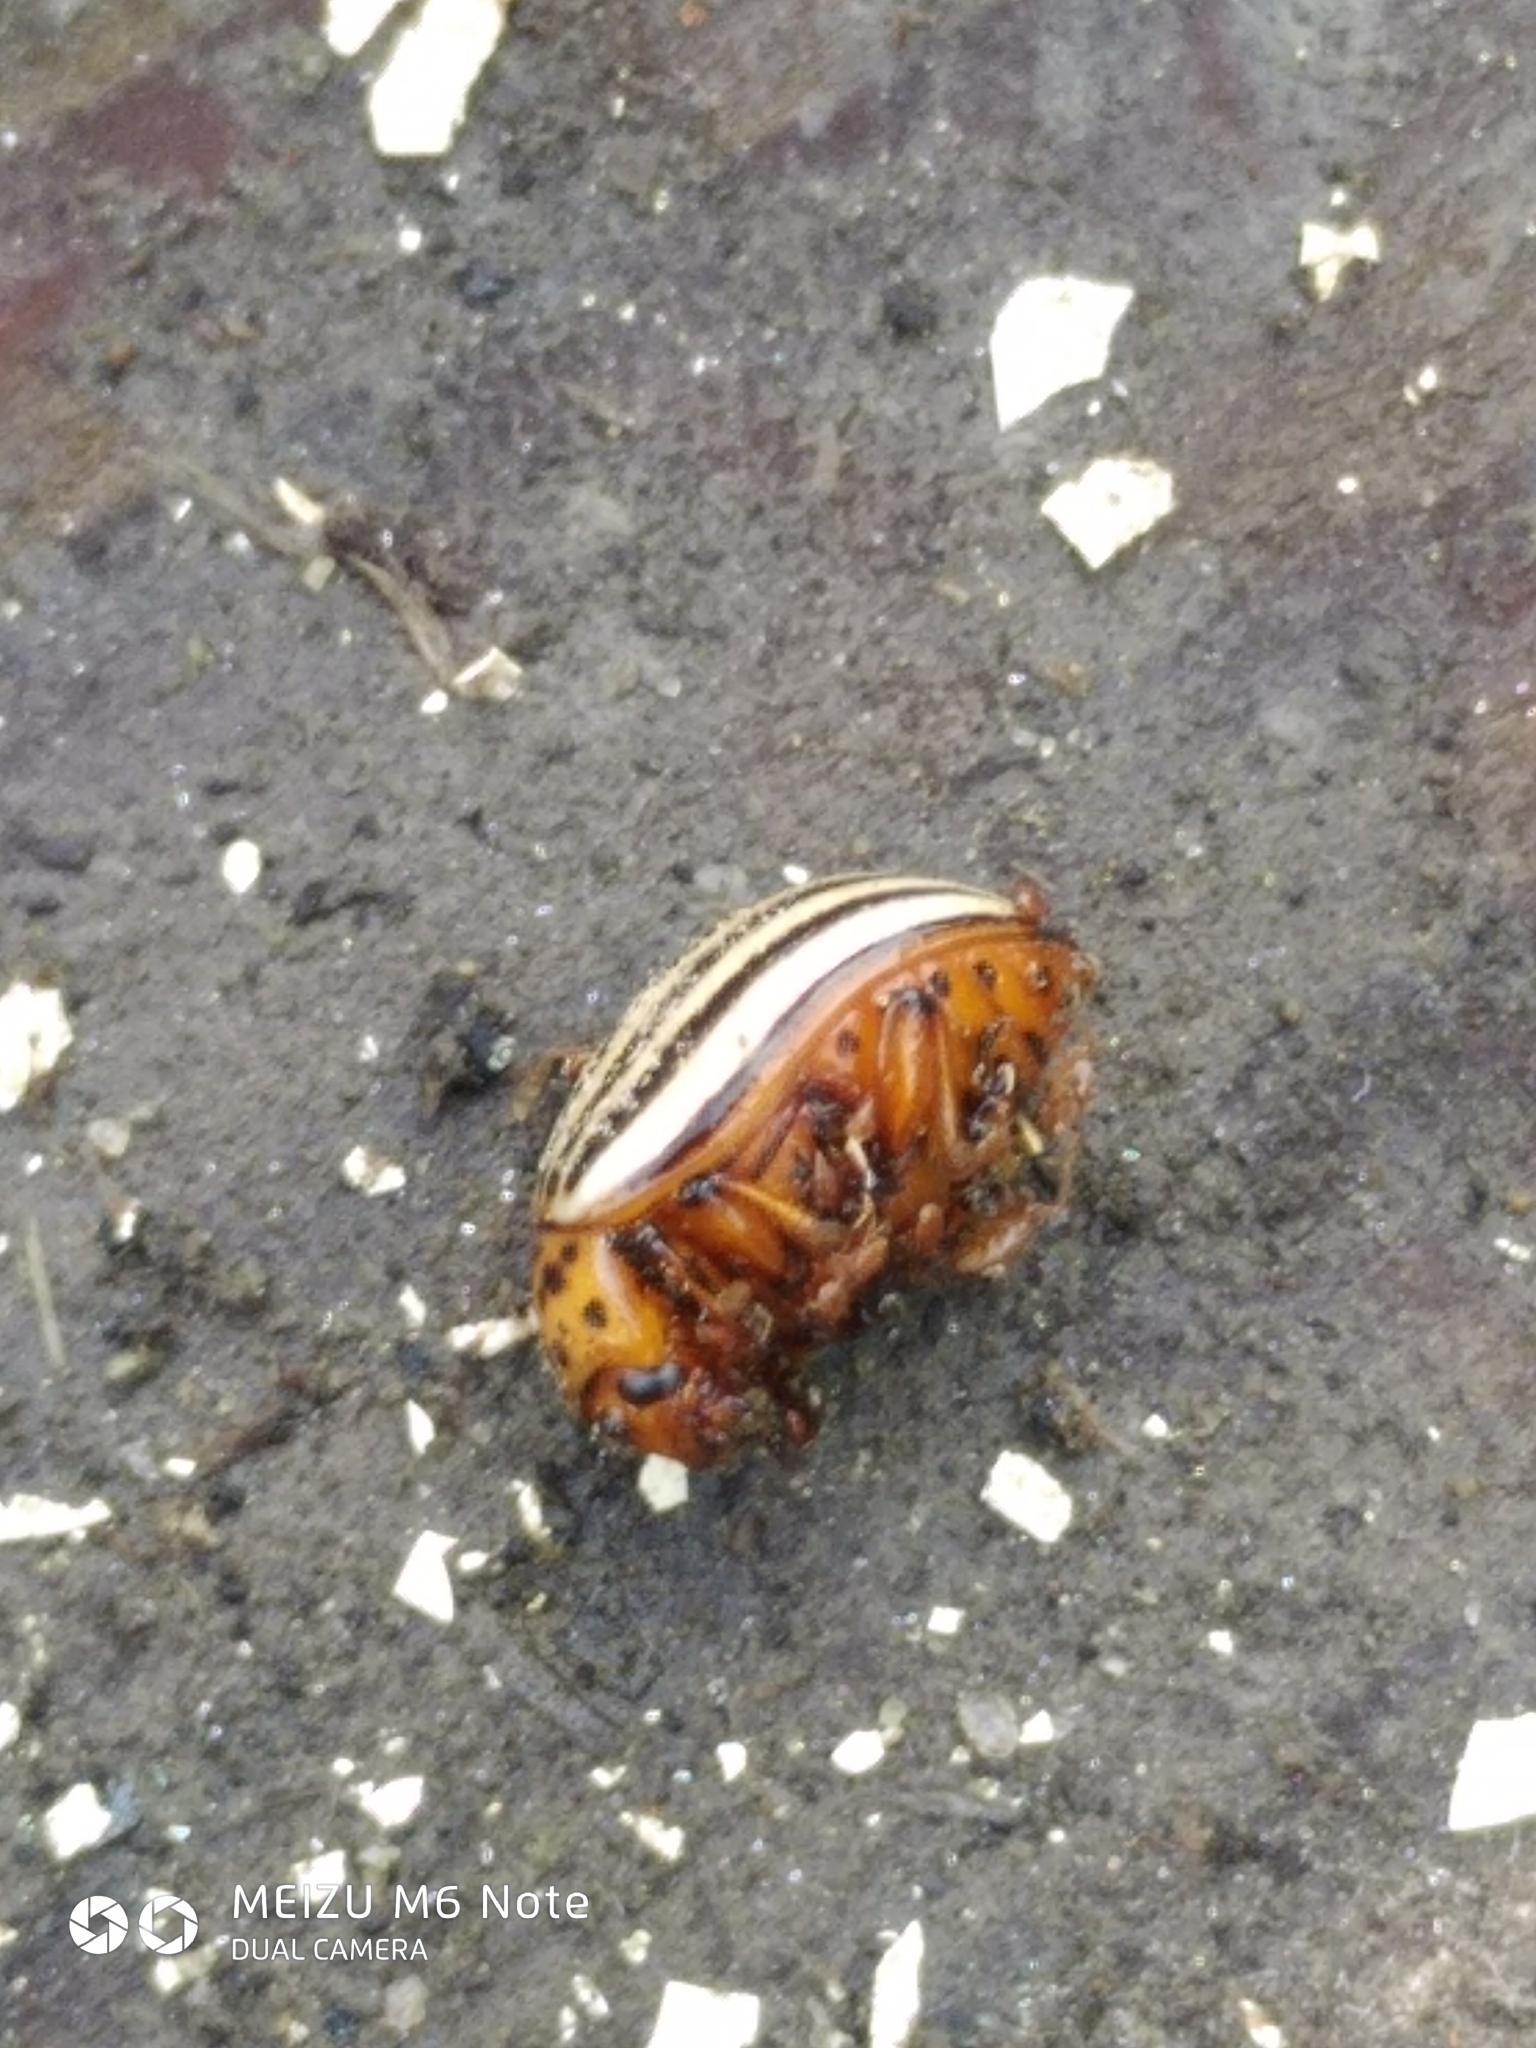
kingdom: Animalia
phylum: Arthropoda
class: Insecta
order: Coleoptera
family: Chrysomelidae
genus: Leptinotarsa
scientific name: Leptinotarsa decemlineata
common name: Colorado potato beetle
